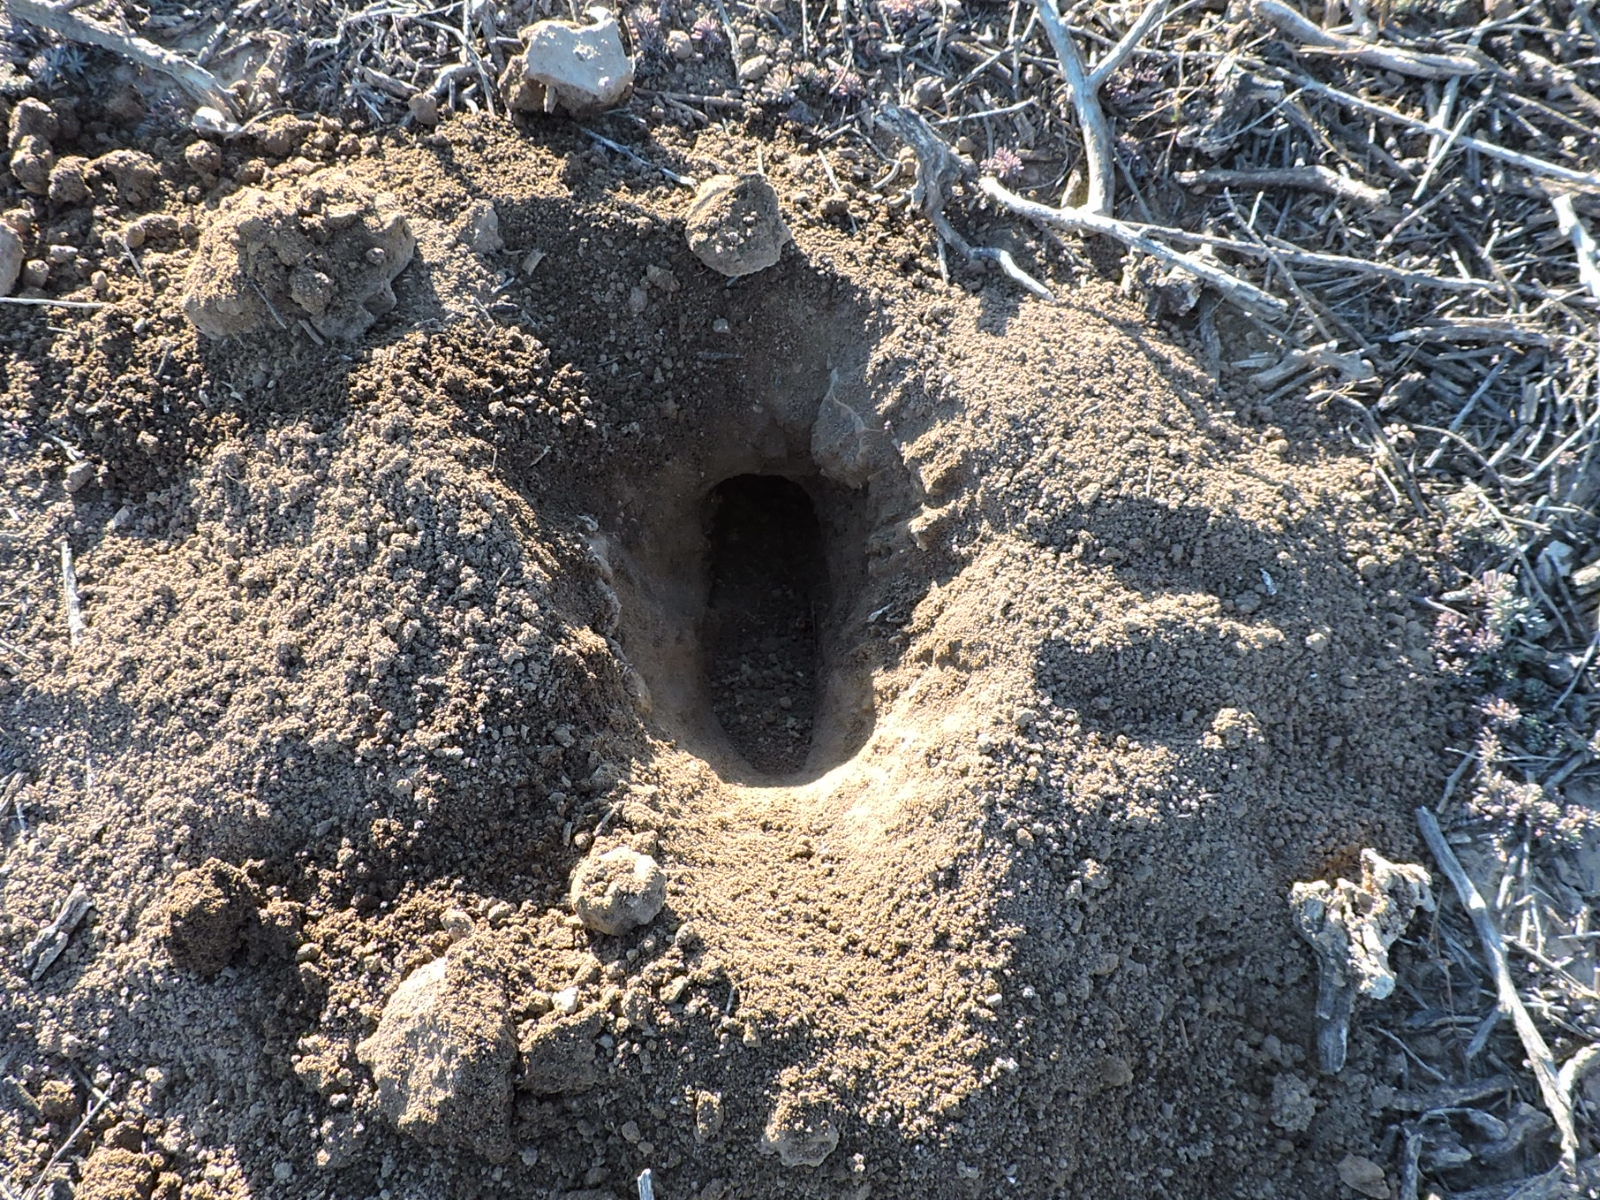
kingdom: Animalia
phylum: Chordata
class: Mammalia
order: Rodentia
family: Geomyidae
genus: Geomys
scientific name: Geomys arenarius
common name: Desert pocket gopher
